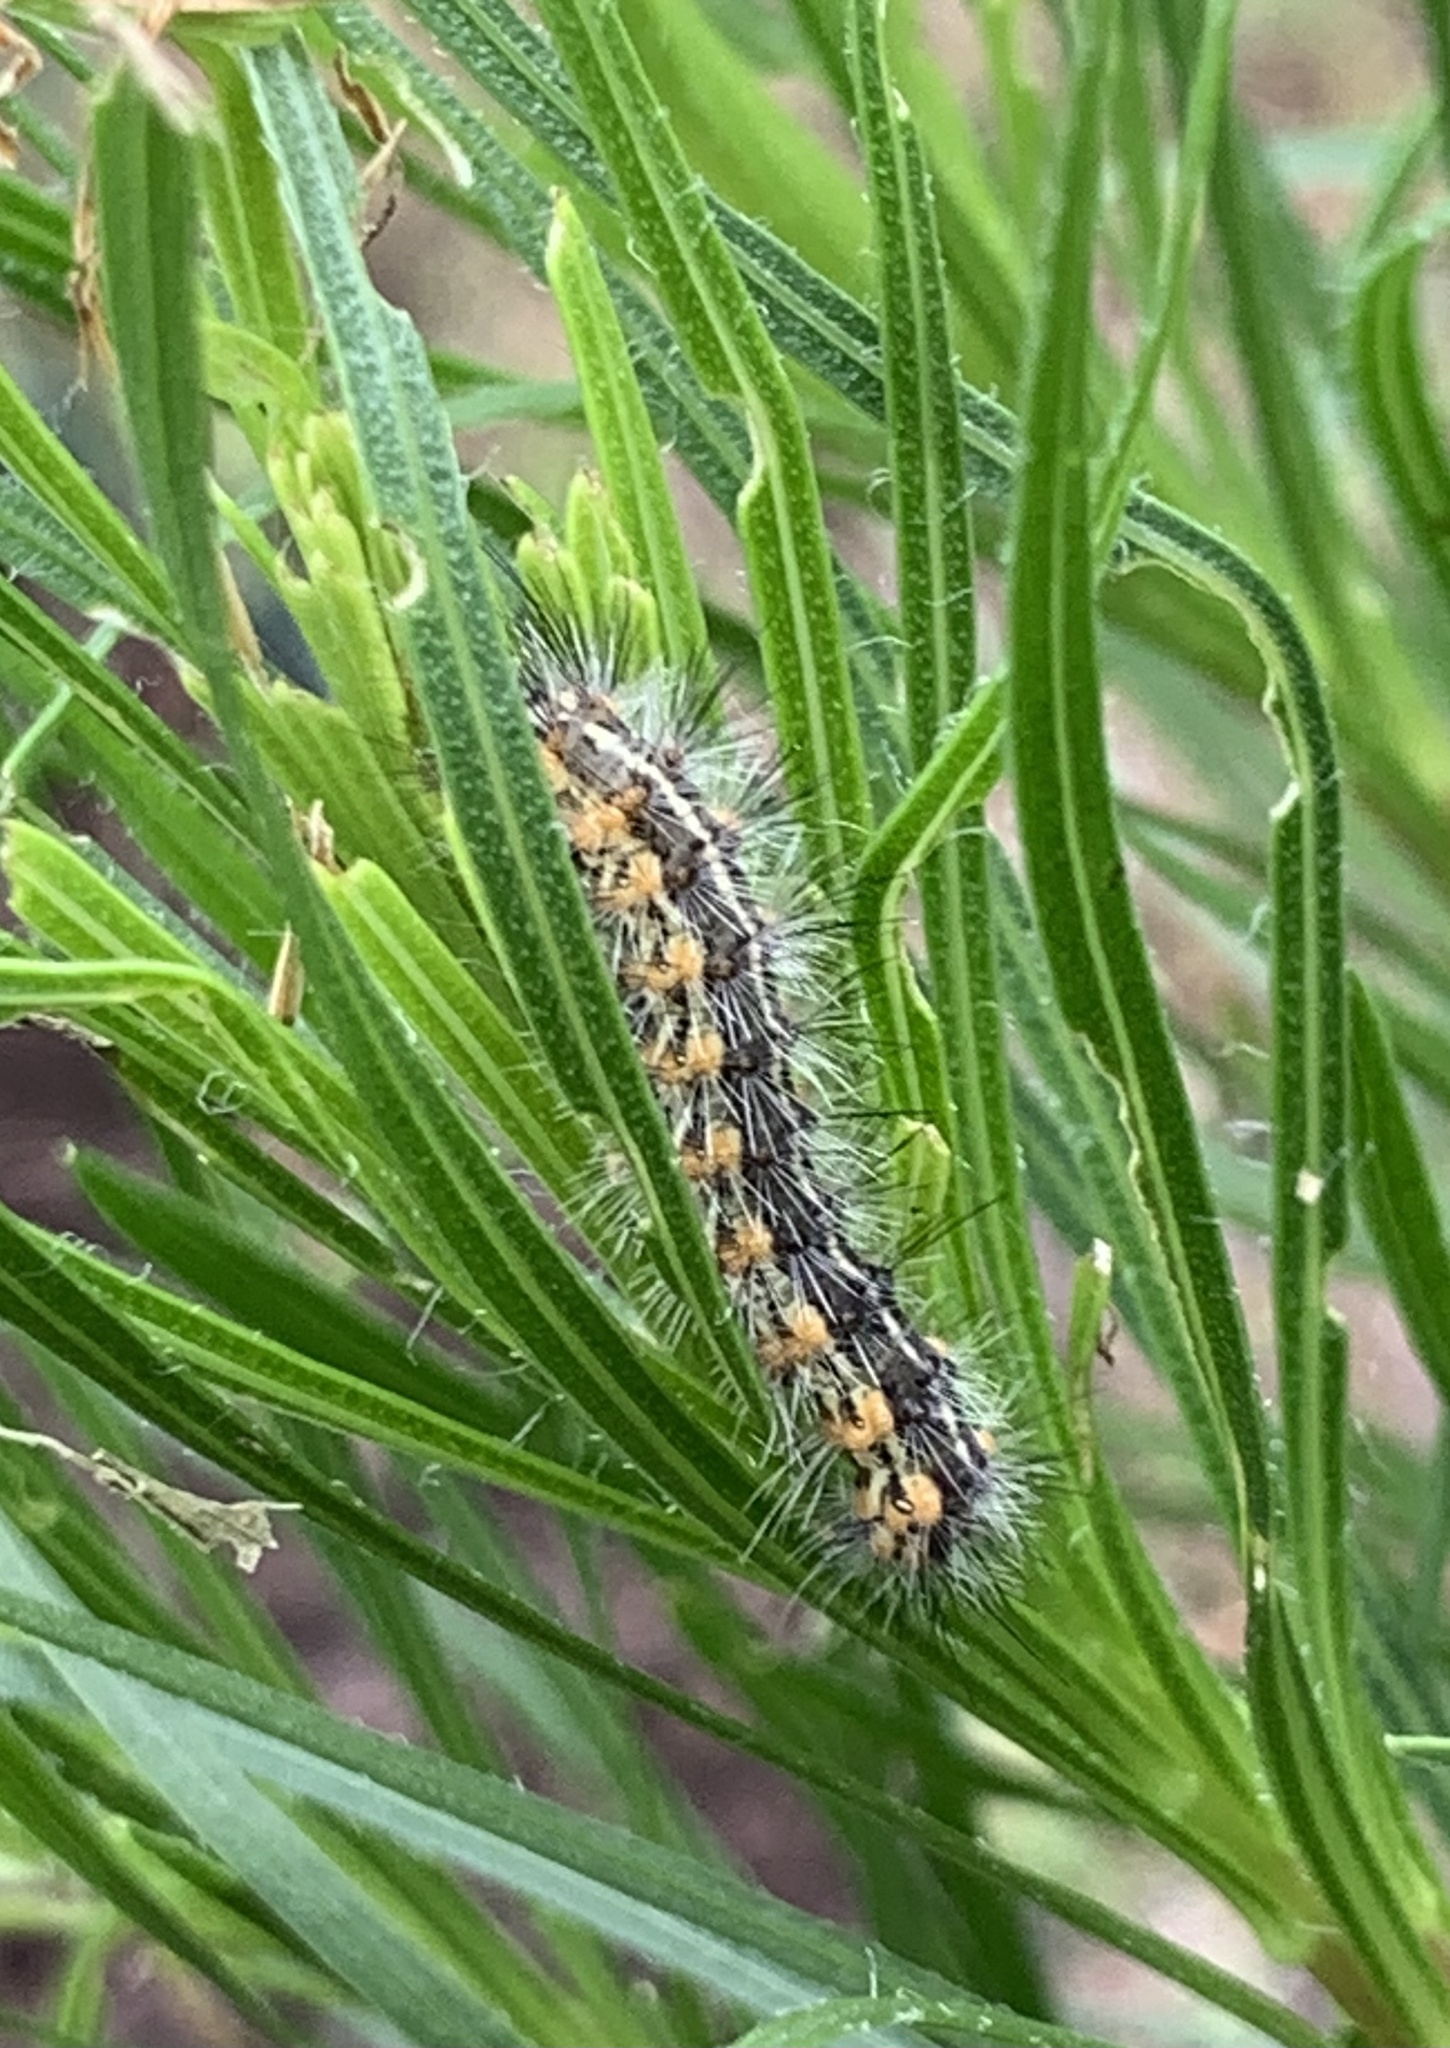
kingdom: Animalia
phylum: Arthropoda
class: Insecta
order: Lepidoptera
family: Erebidae
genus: Estigmene
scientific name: Estigmene acrea
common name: Salt marsh moth
